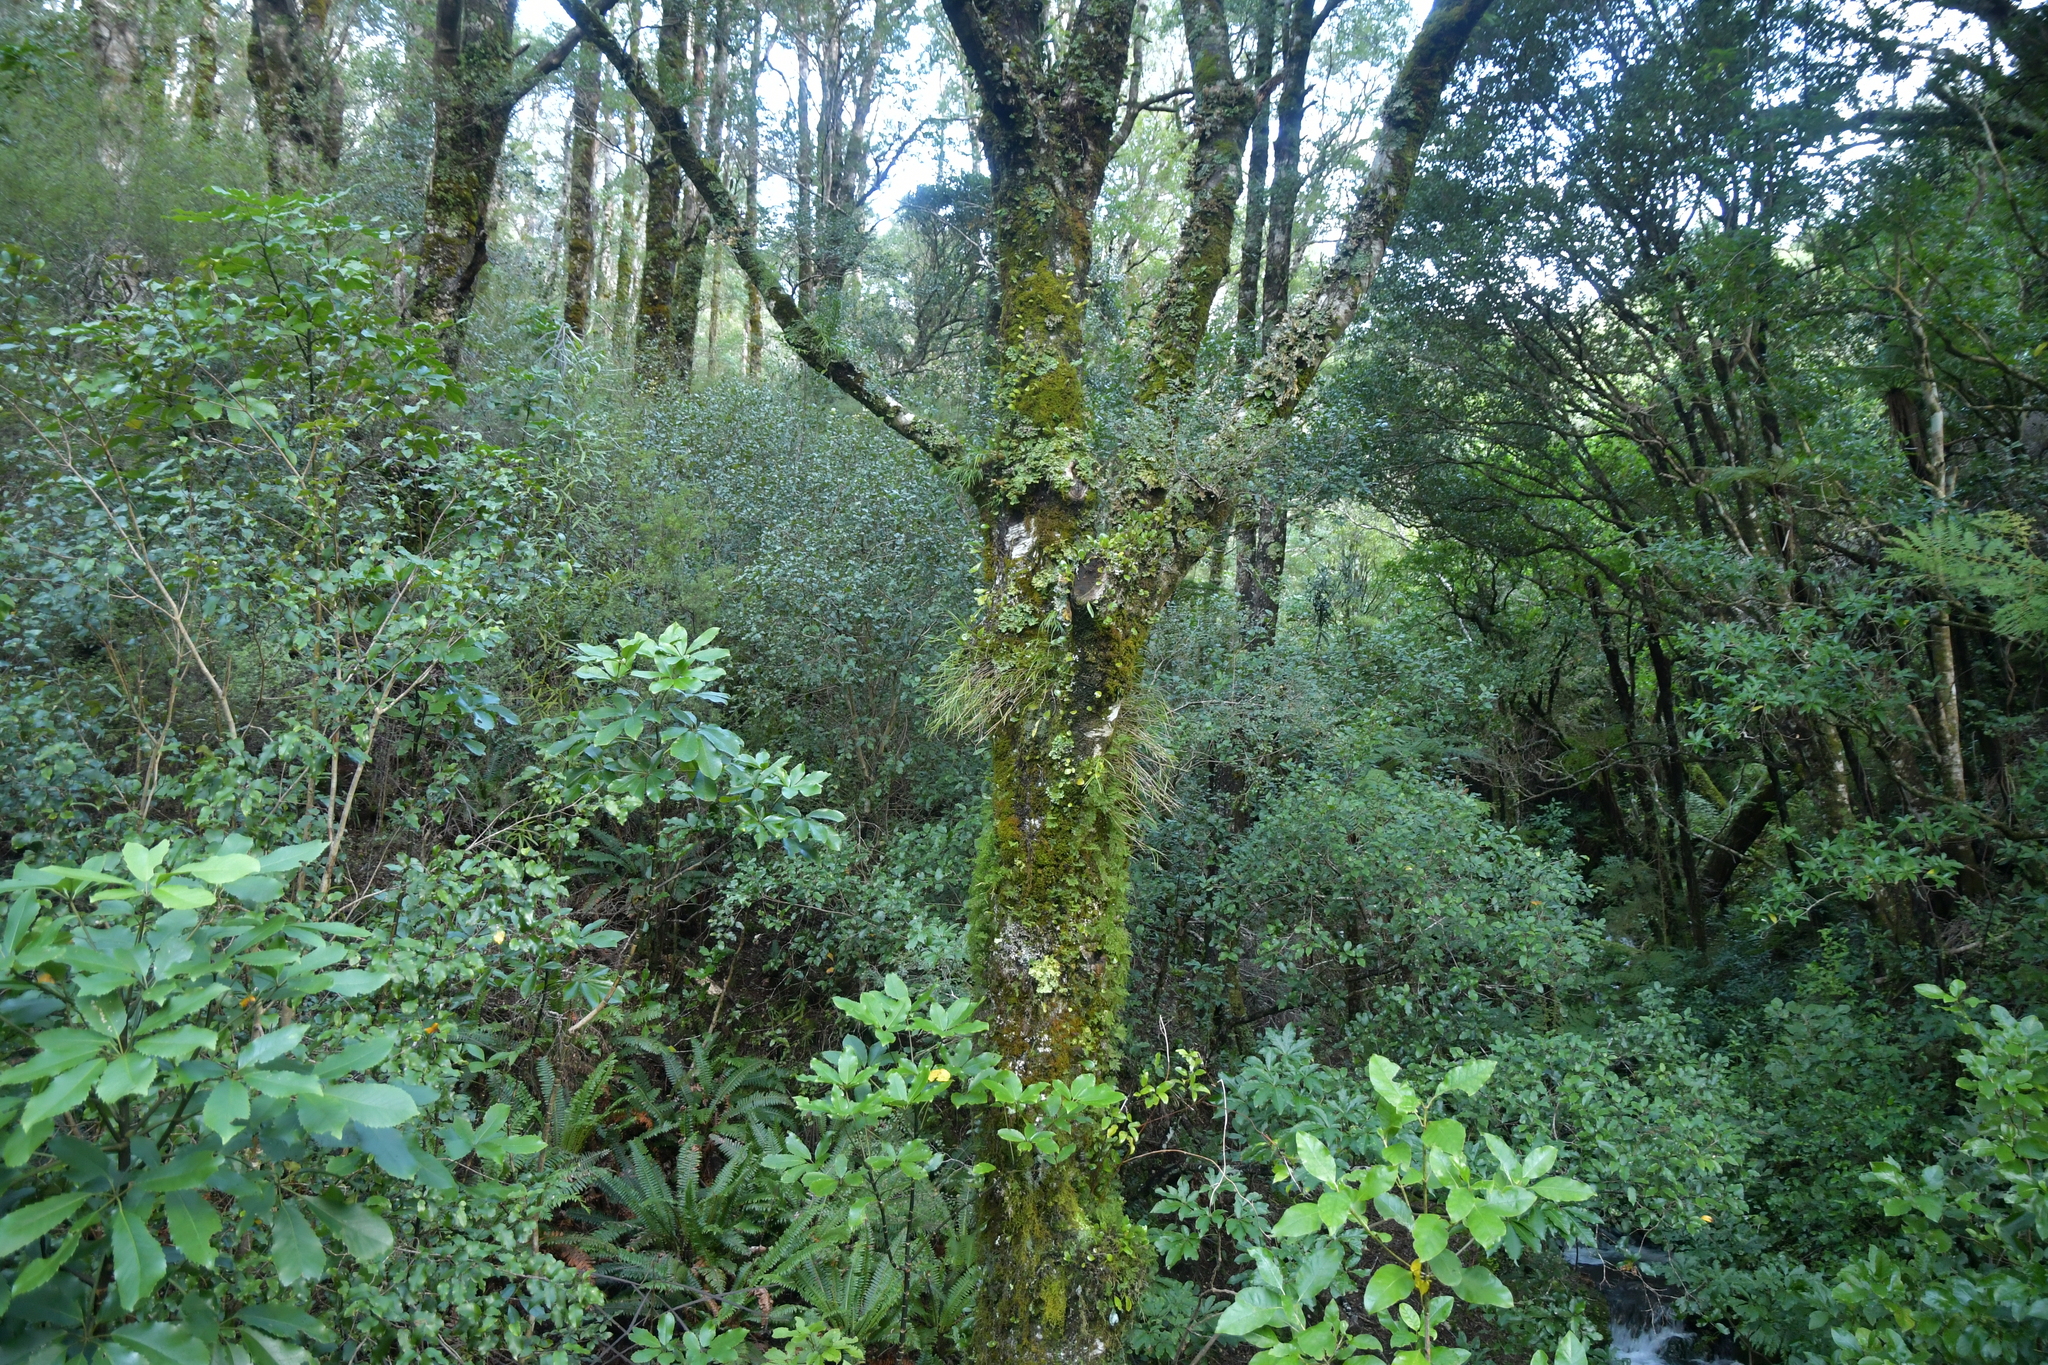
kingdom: Plantae
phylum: Tracheophyta
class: Liliopsida
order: Asparagales
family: Orchidaceae
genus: Earina
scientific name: Earina mucronata
